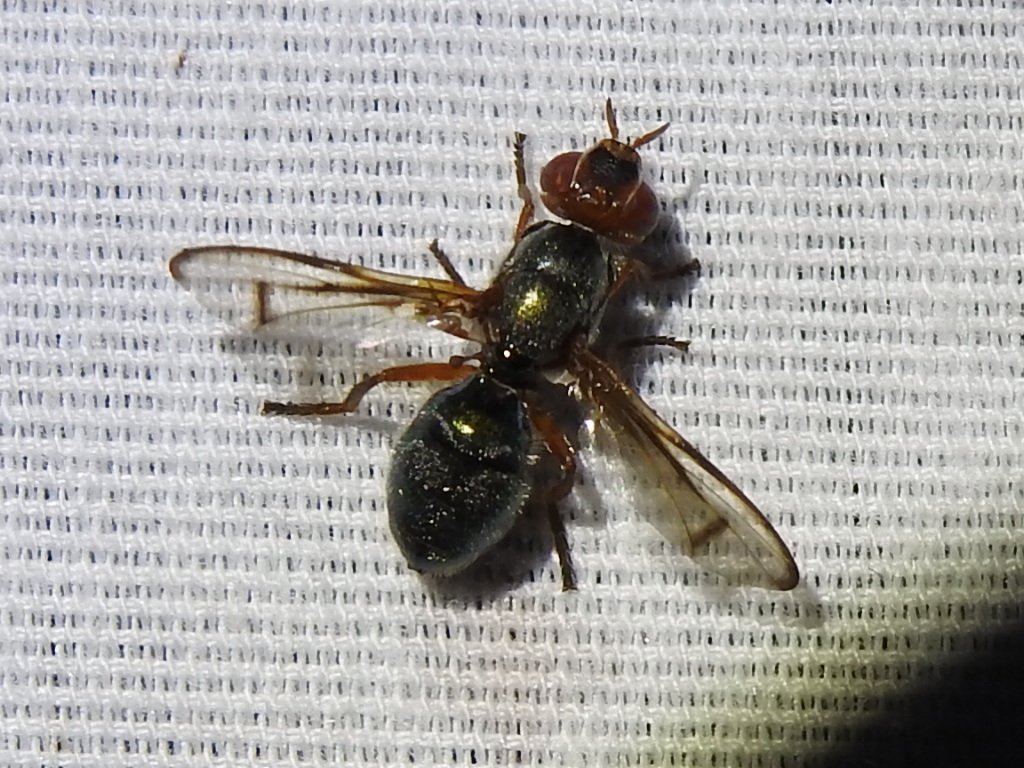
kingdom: Animalia
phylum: Arthropoda
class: Insecta
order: Diptera
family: Platystomatidae
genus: Senopterina
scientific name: Senopterina caerulescens
